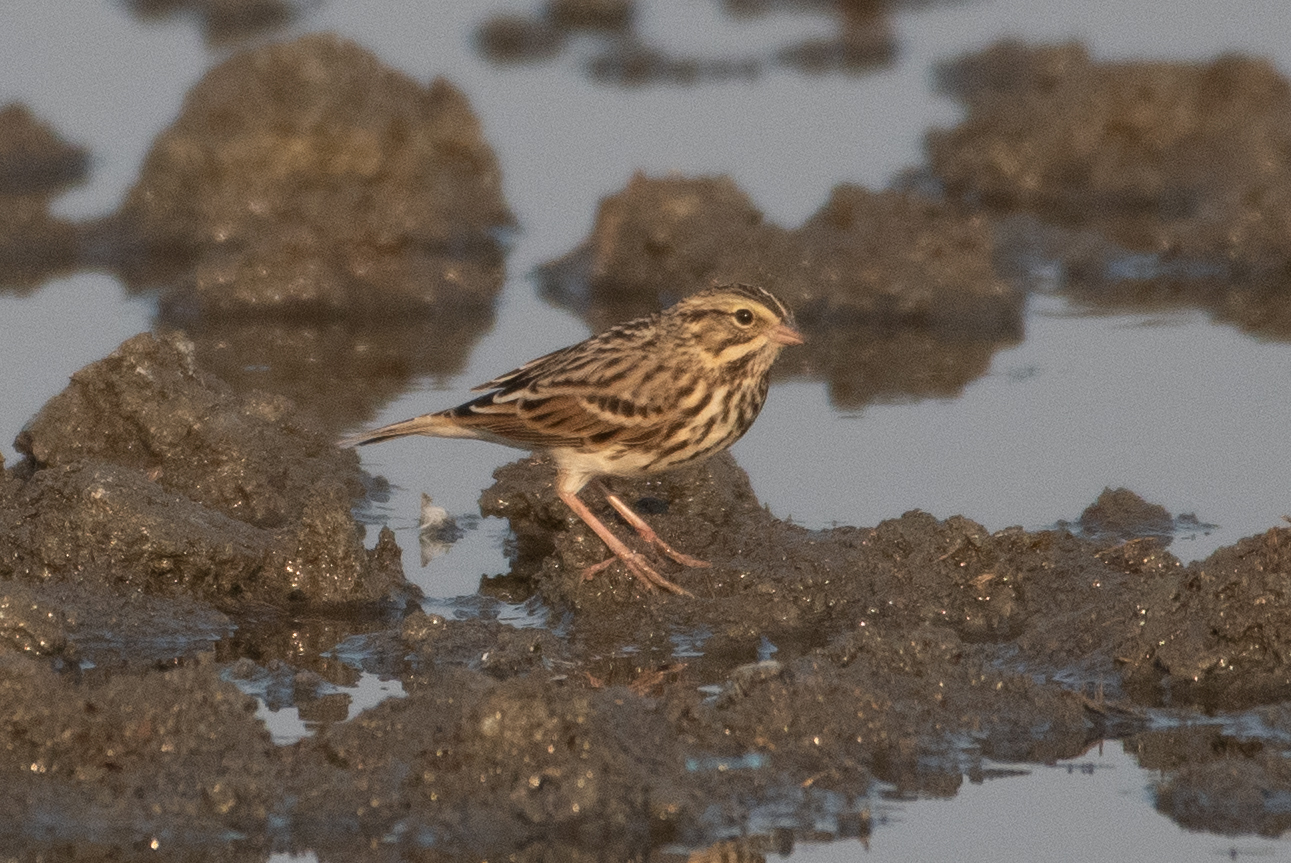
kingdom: Animalia
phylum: Chordata
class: Aves
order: Passeriformes
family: Passerellidae
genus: Passerculus
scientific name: Passerculus sandwichensis
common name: Savannah sparrow
